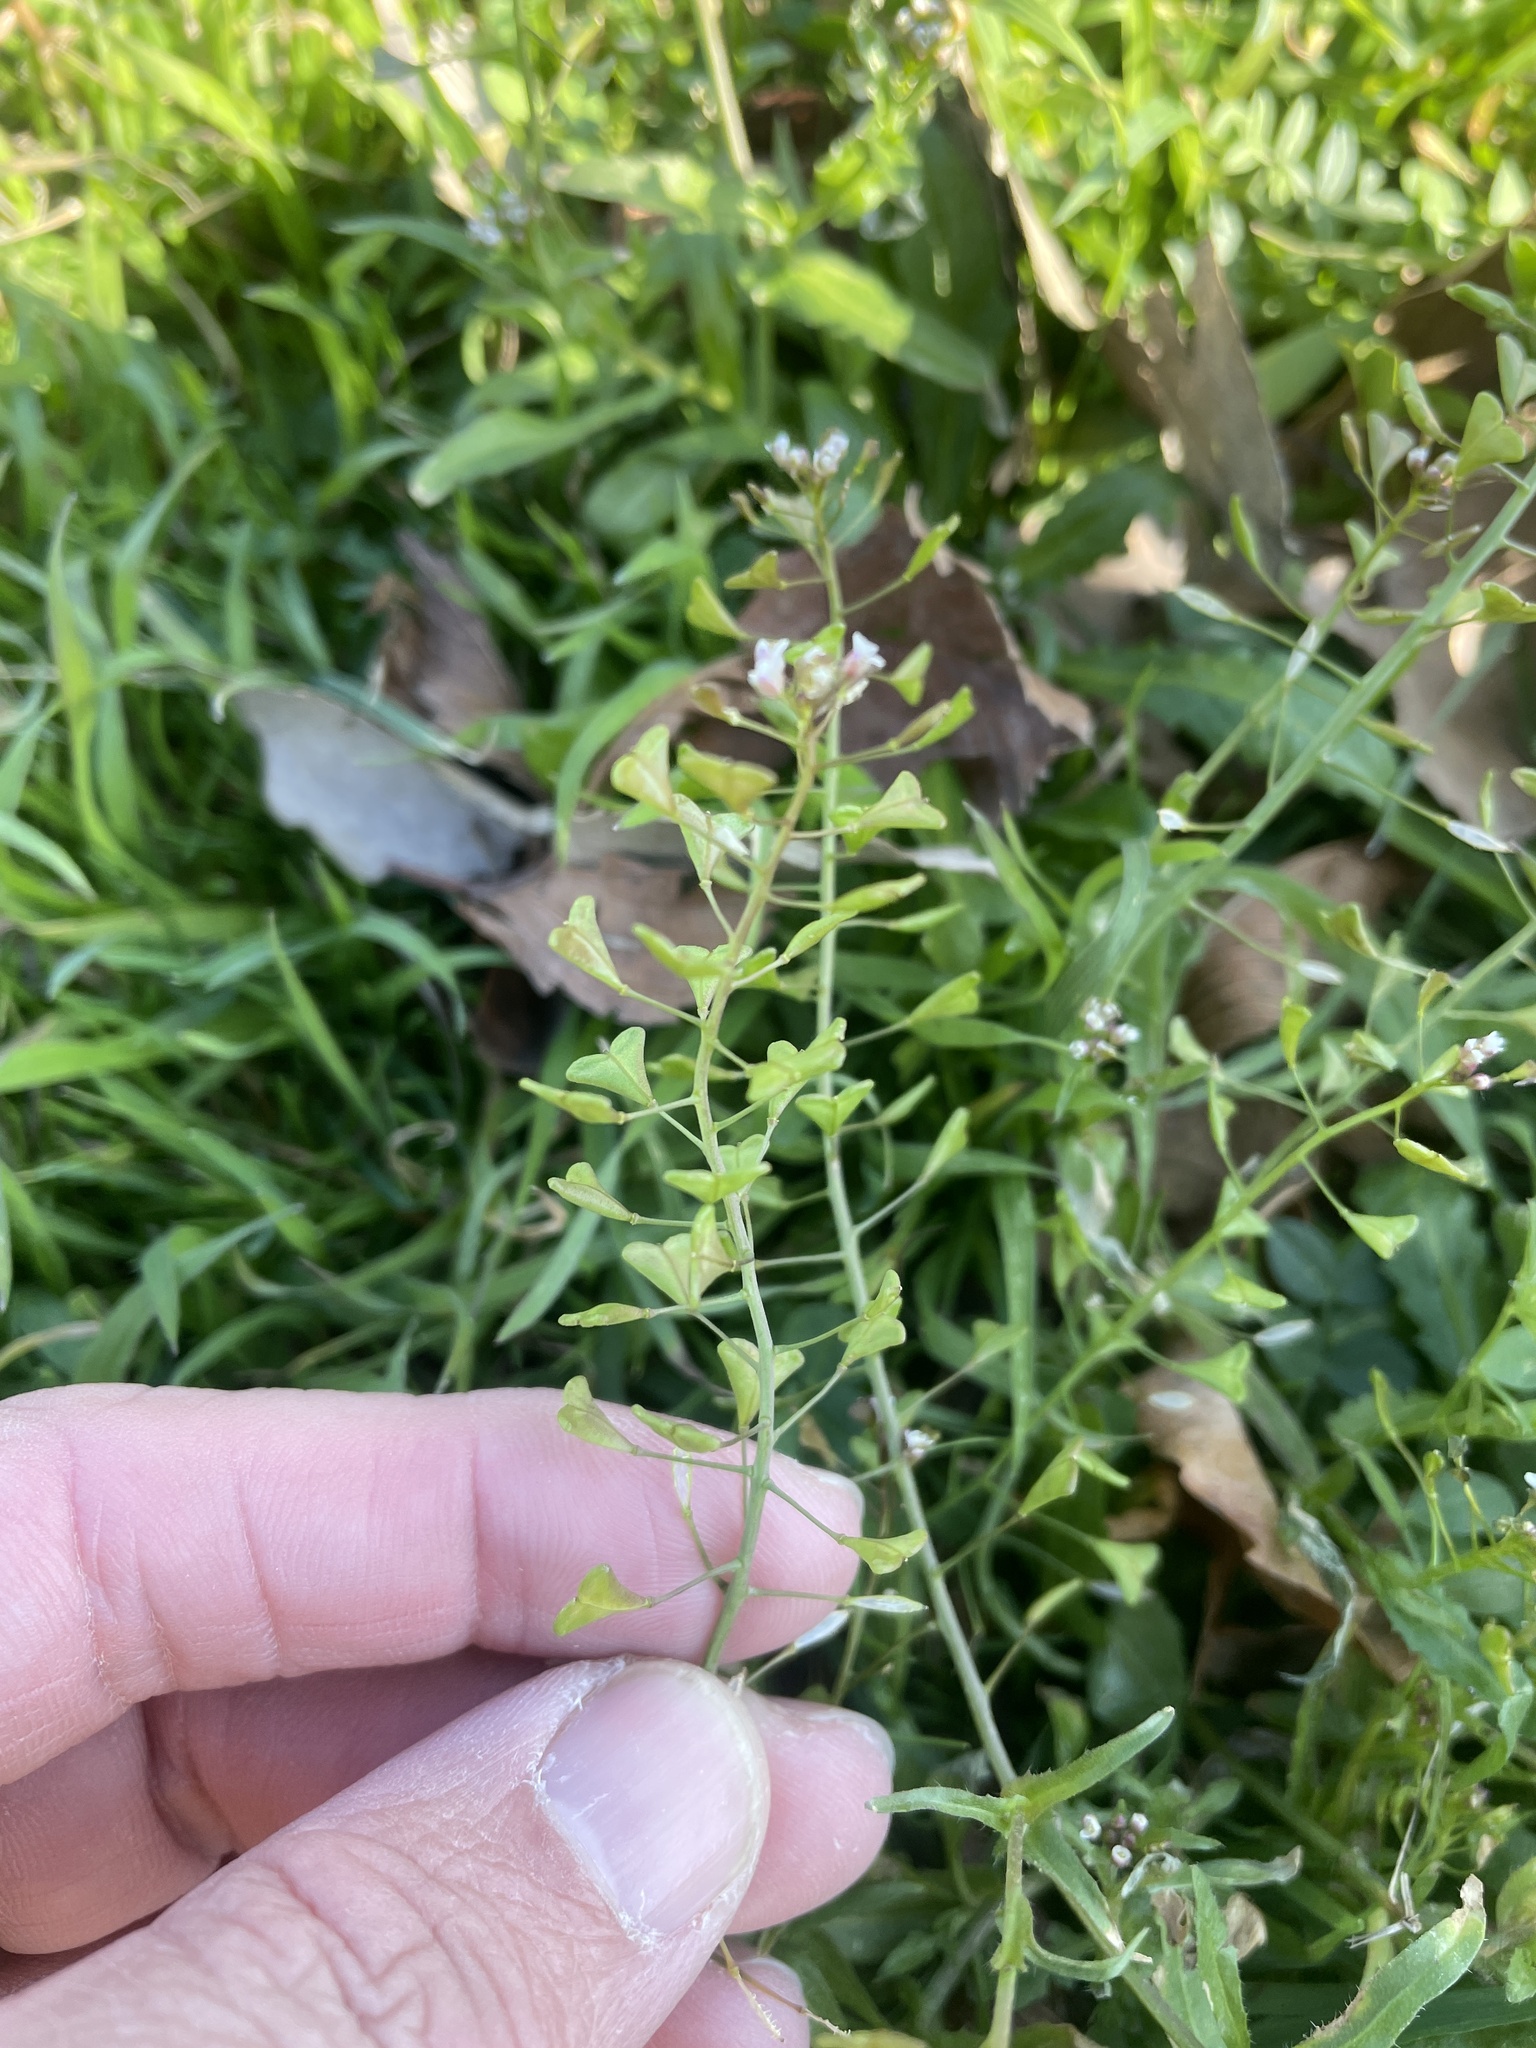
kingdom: Plantae
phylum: Tracheophyta
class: Magnoliopsida
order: Brassicales
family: Brassicaceae
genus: Capsella
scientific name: Capsella bursa-pastoris
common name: Shepherd's purse
